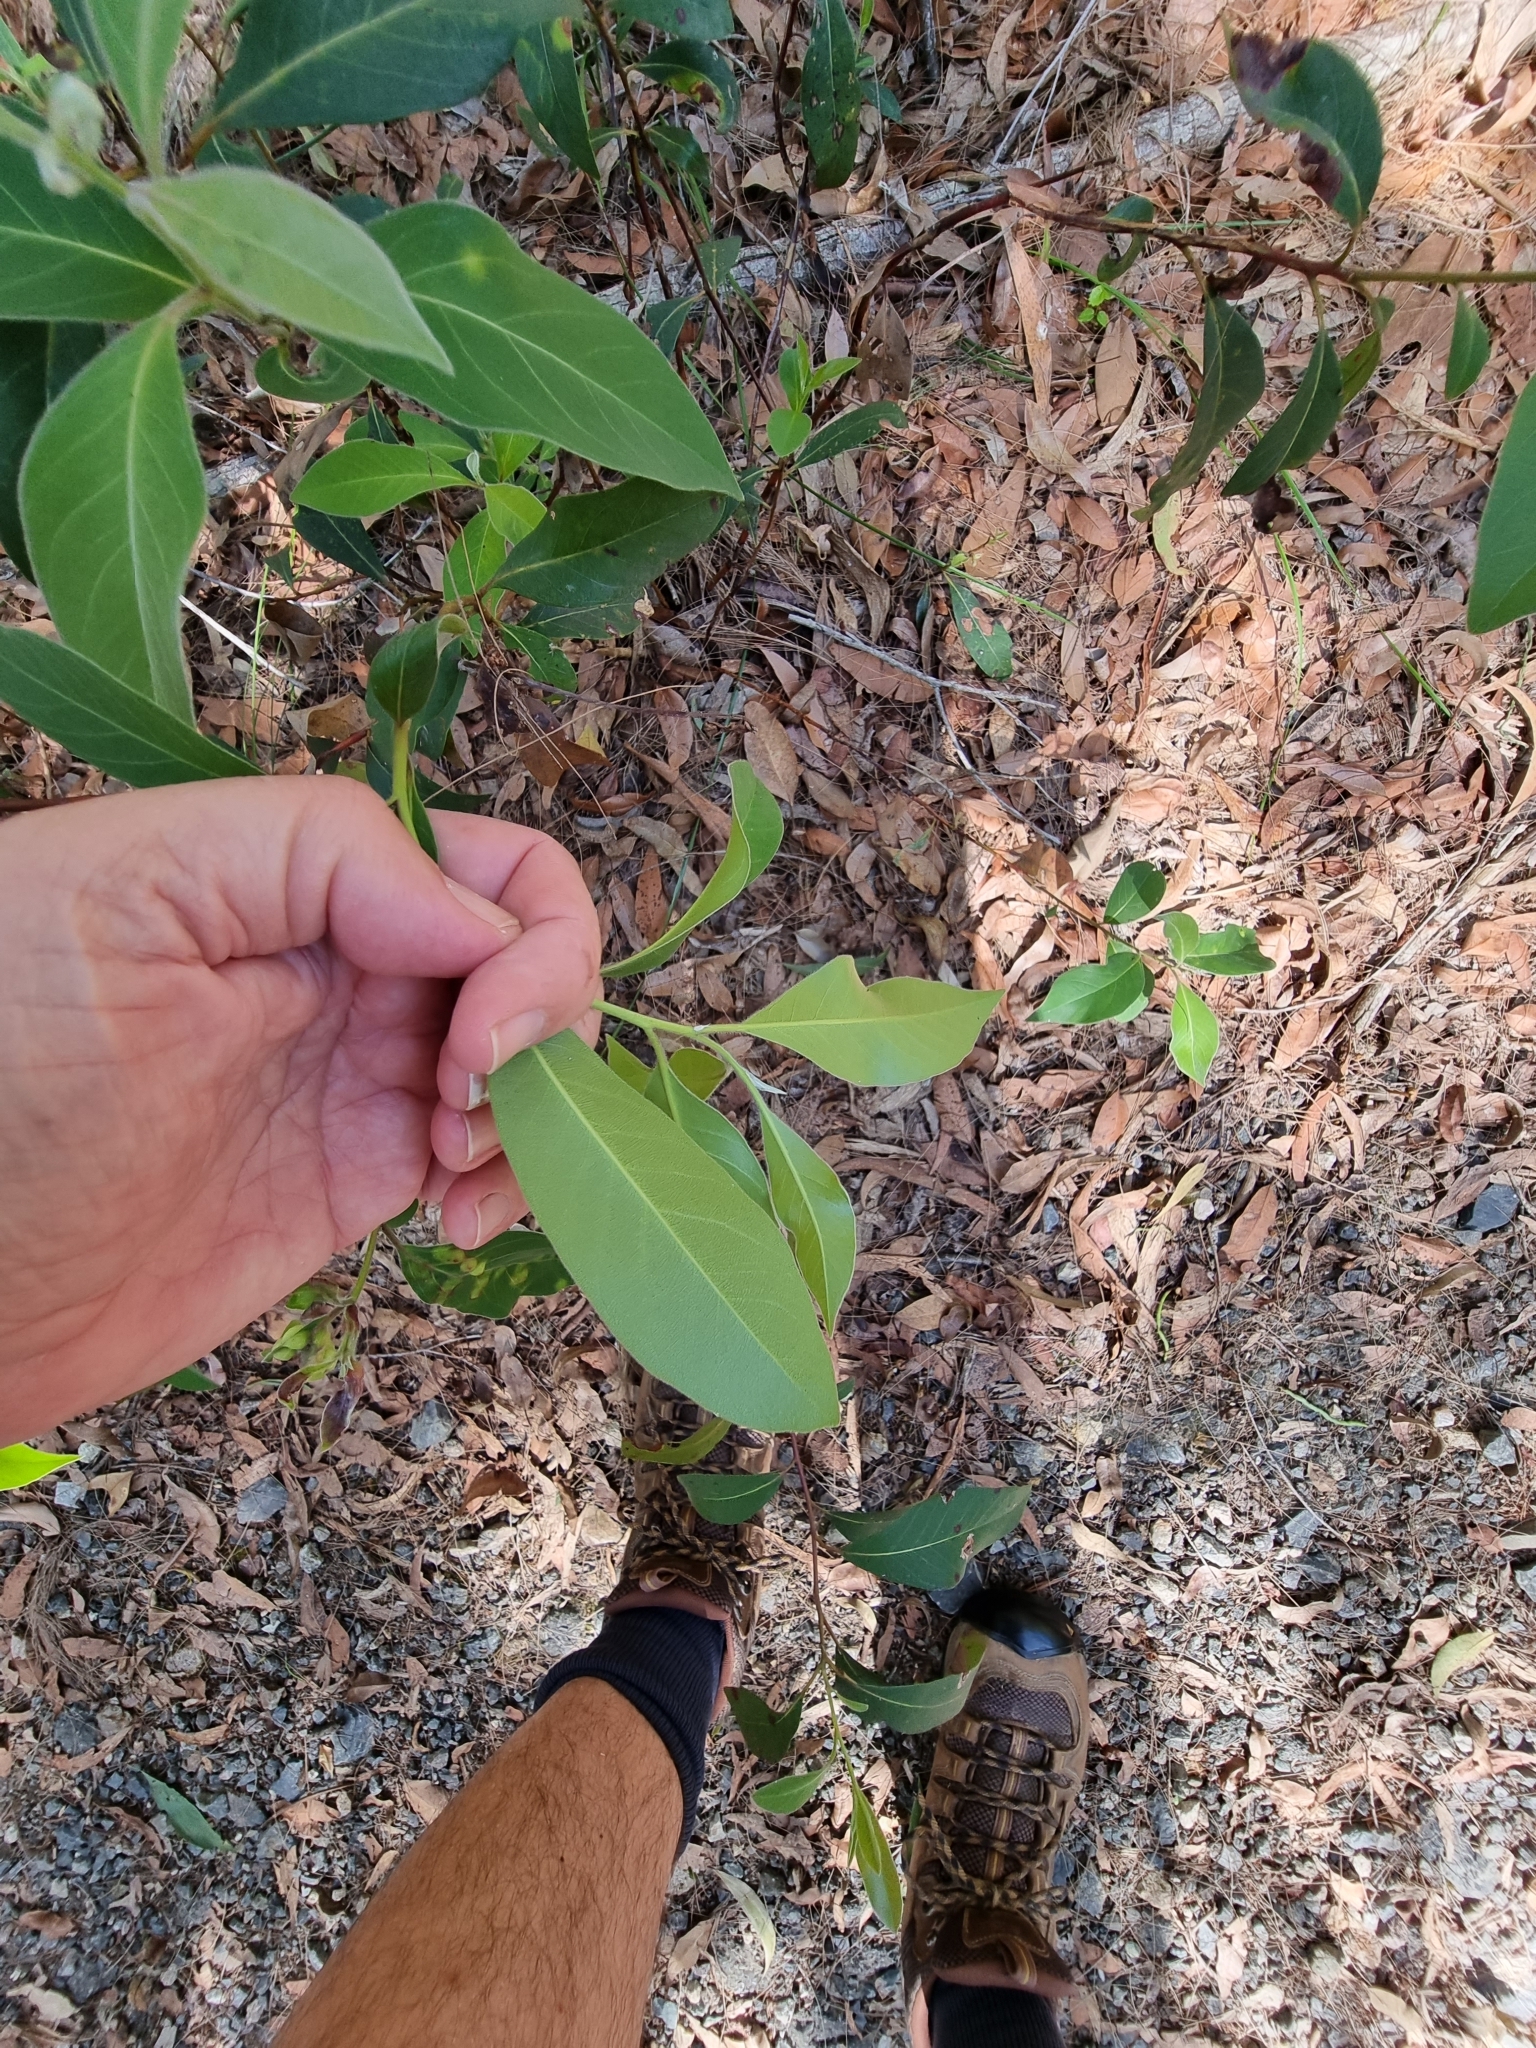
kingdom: Plantae
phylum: Tracheophyta
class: Magnoliopsida
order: Myrtales
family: Myrtaceae
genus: Lophostemon
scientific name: Lophostemon suaveolens
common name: Paperbark-mahogany
